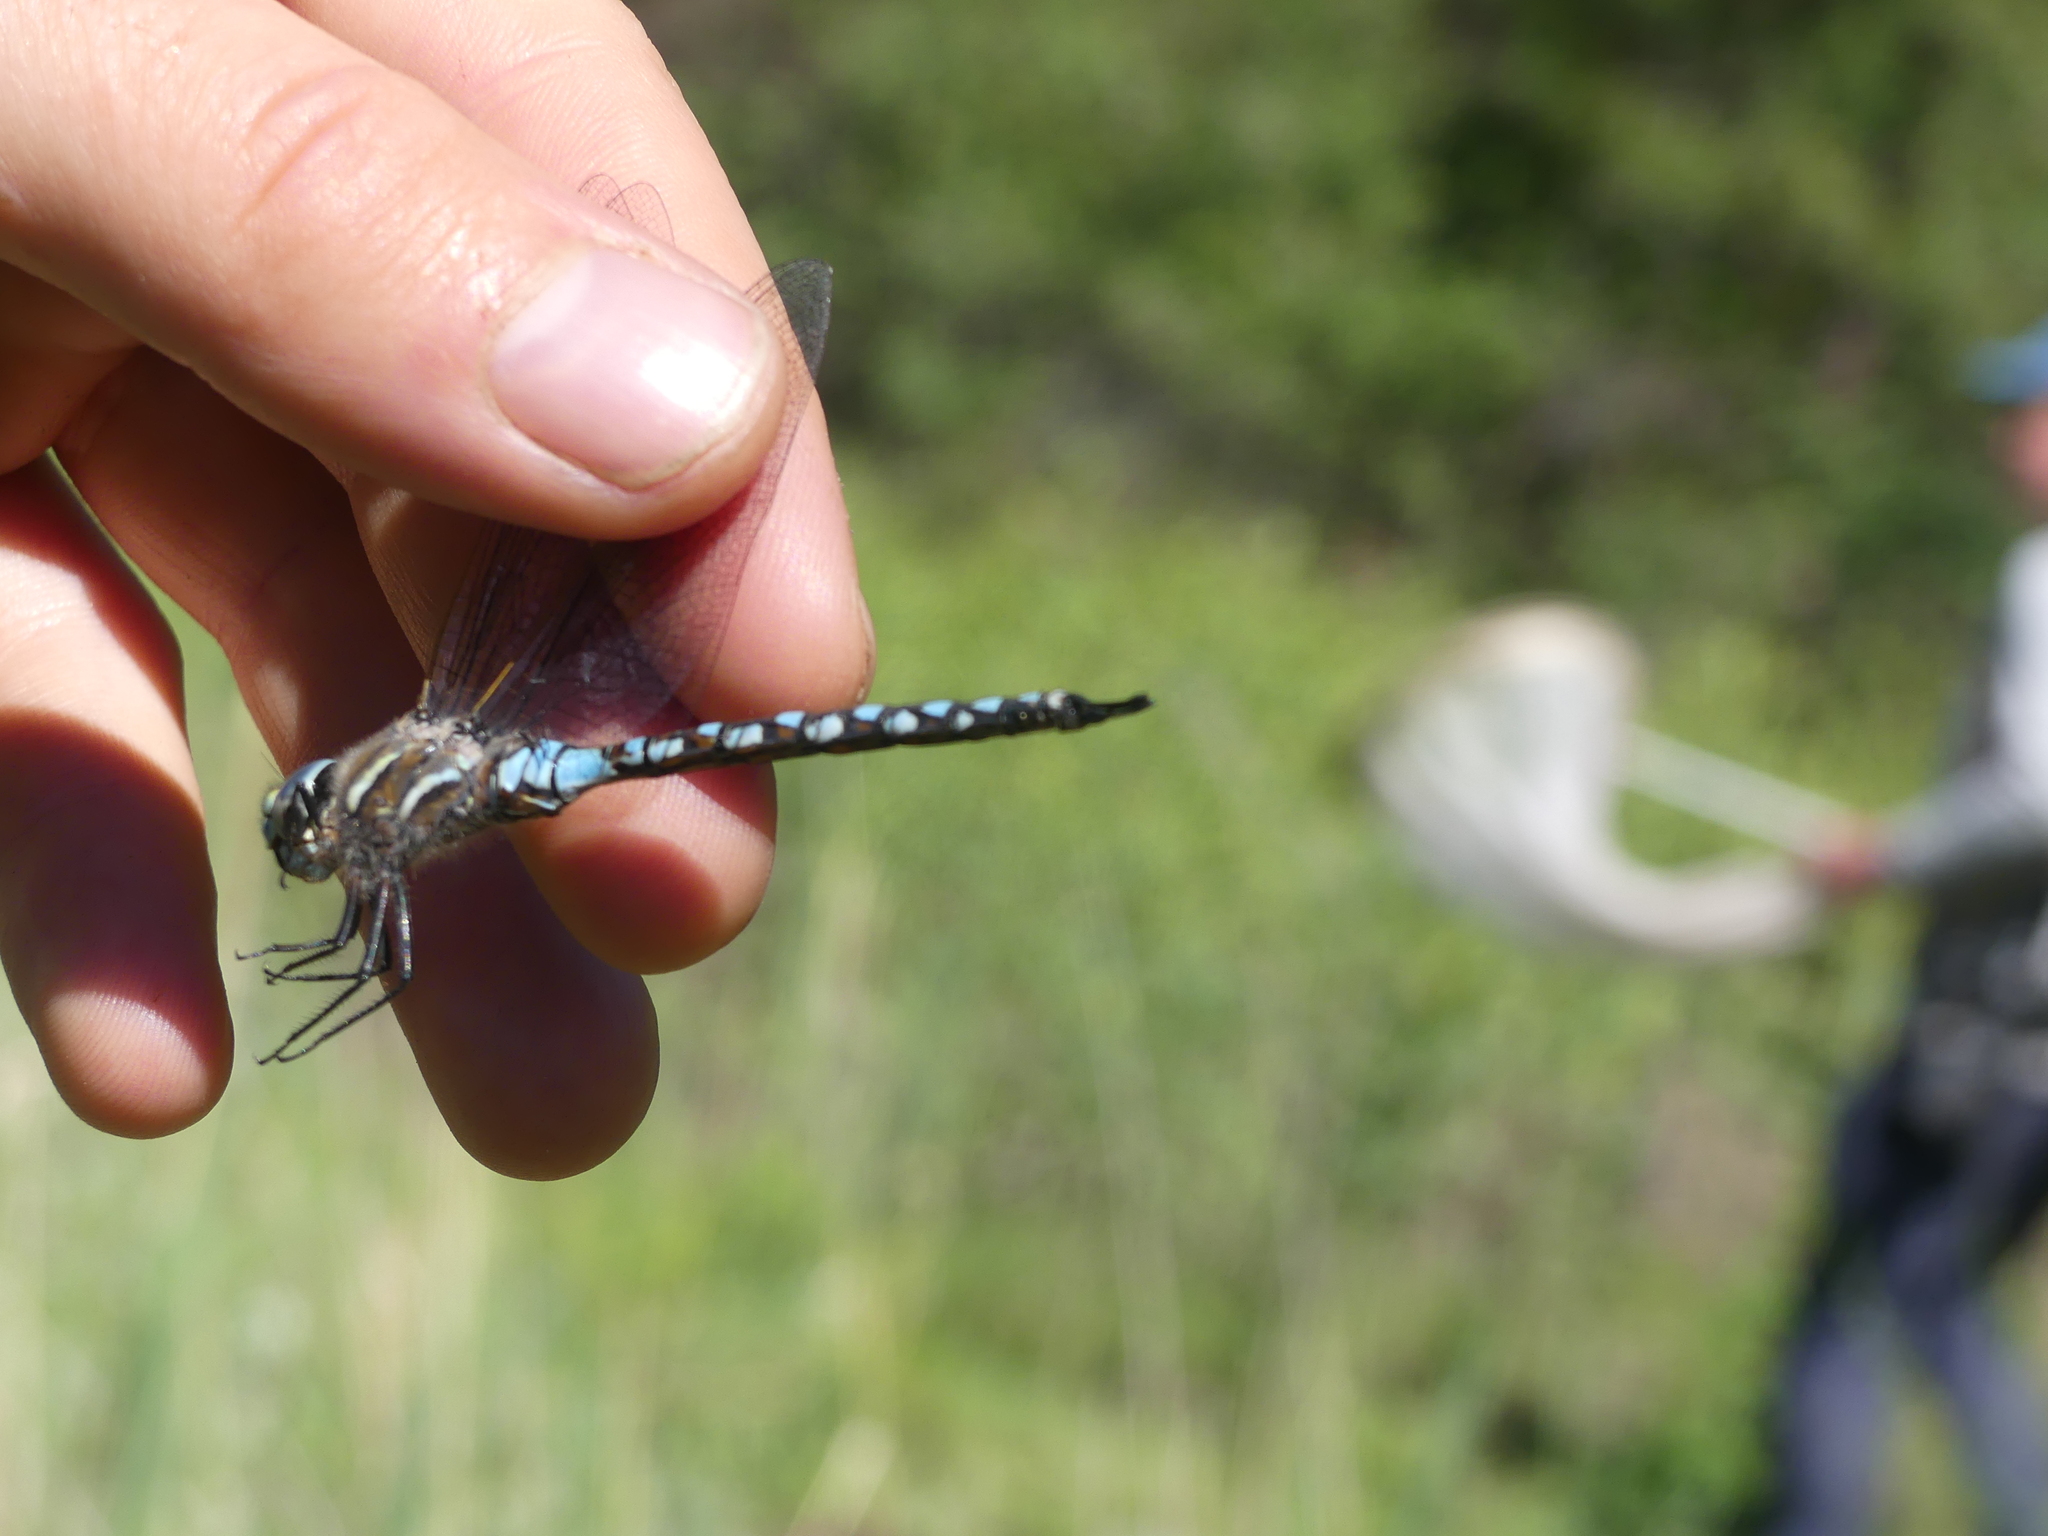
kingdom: Animalia
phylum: Arthropoda
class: Insecta
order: Odonata
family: Aeshnidae
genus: Rhionaeschna
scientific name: Rhionaeschna californica
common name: California darner
